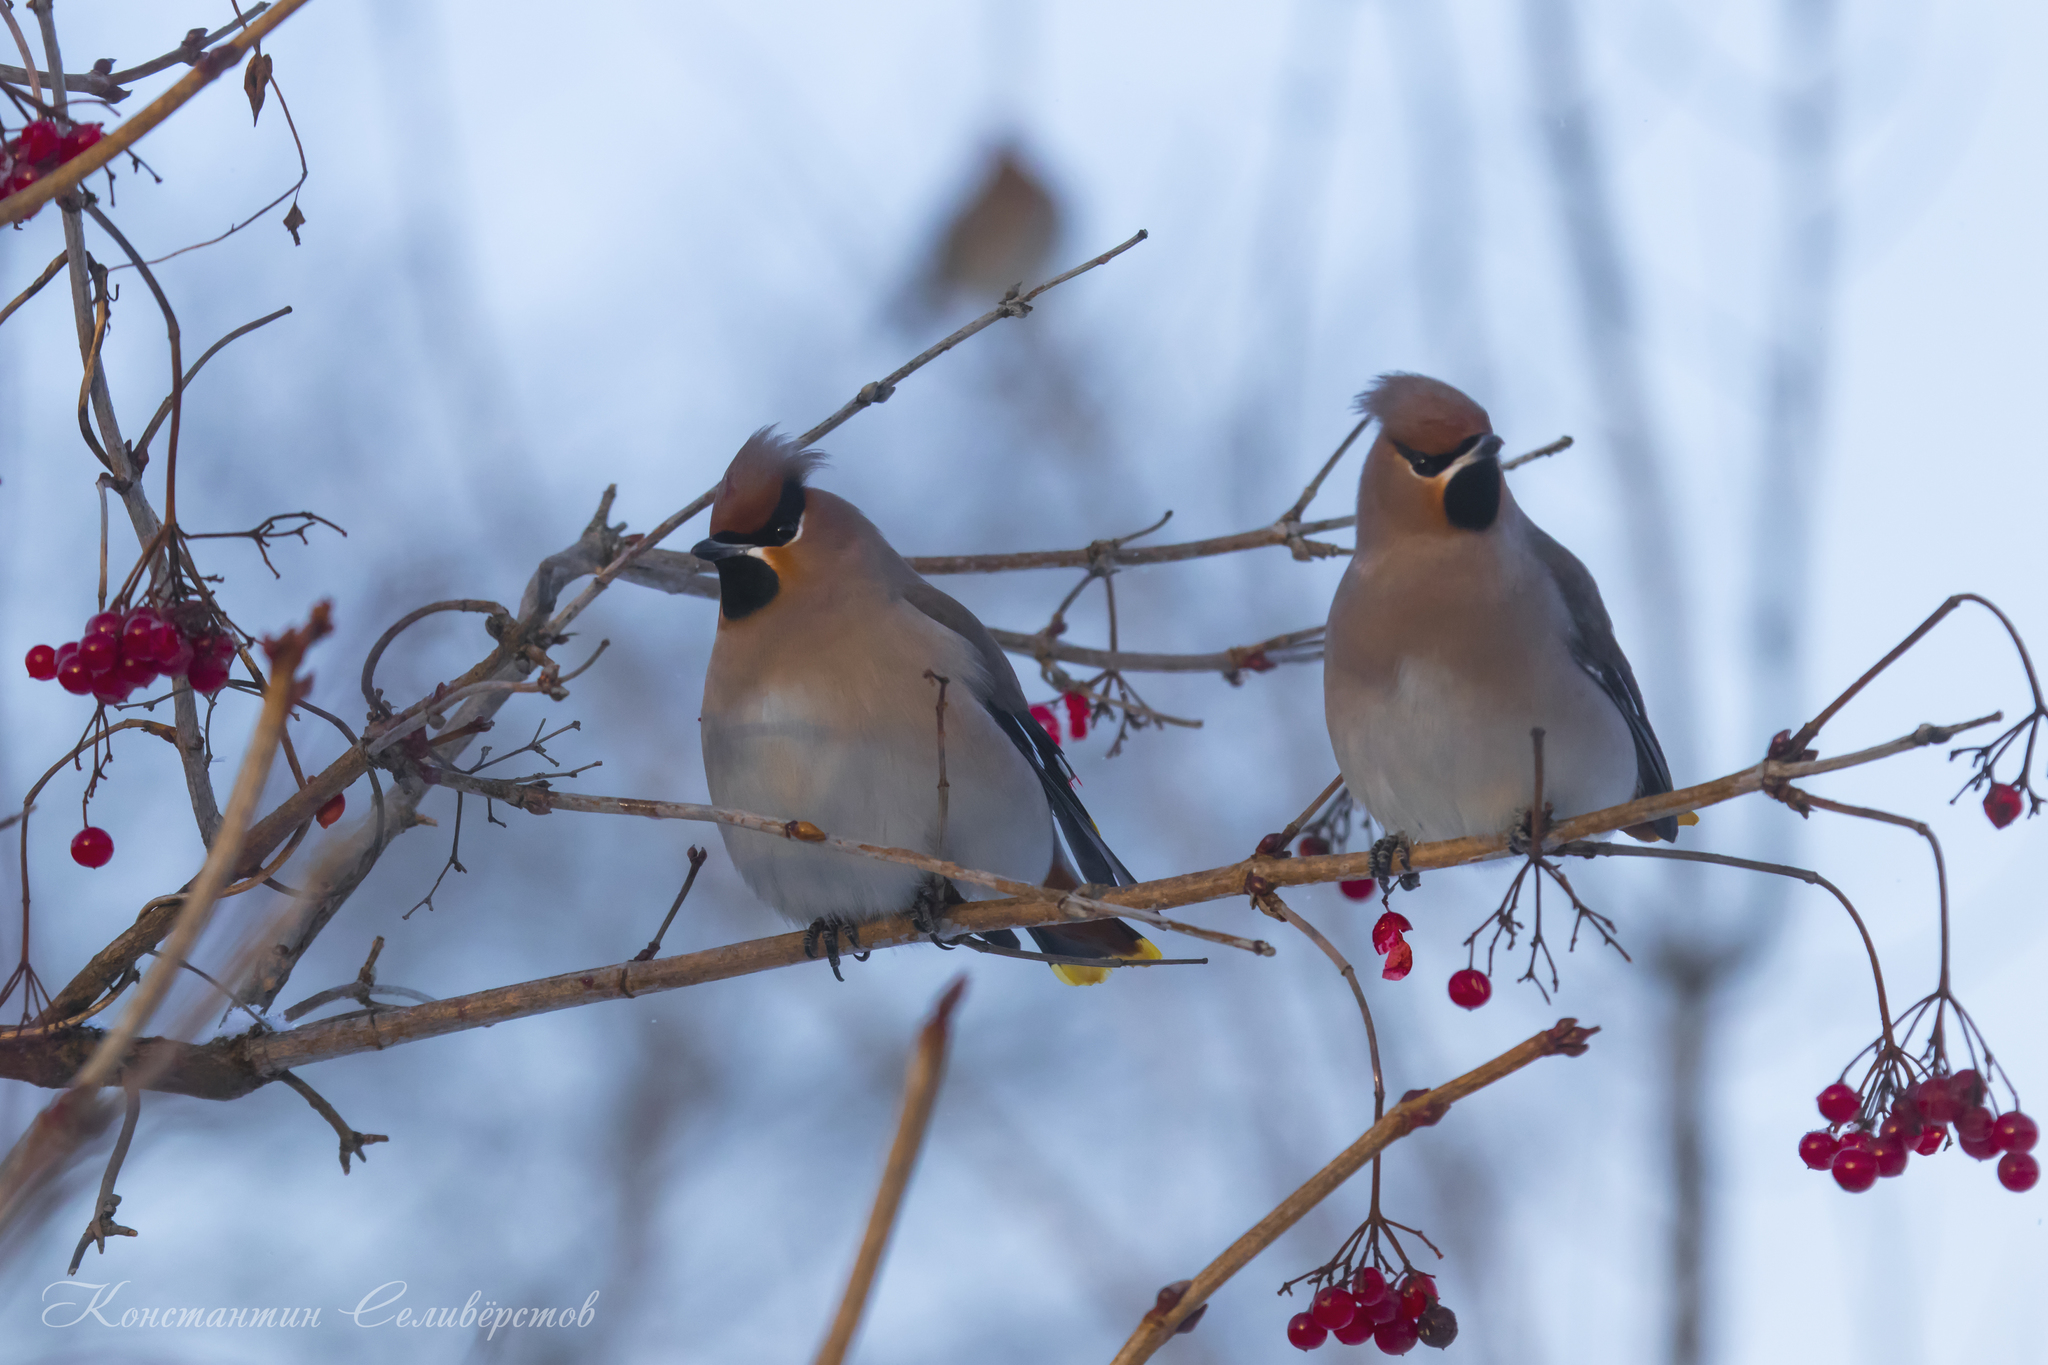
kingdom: Animalia
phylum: Chordata
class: Aves
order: Passeriformes
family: Bombycillidae
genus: Bombycilla
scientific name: Bombycilla garrulus
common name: Bohemian waxwing
